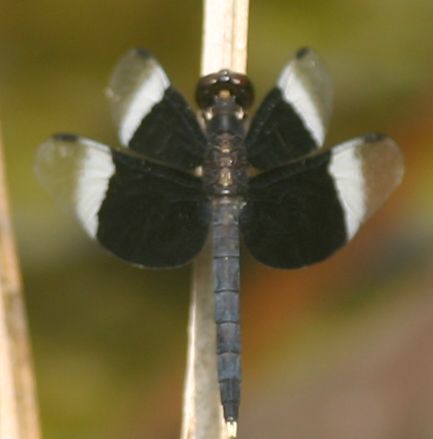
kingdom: Animalia
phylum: Arthropoda
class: Insecta
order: Odonata
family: Libellulidae
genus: Neurothemis
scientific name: Neurothemis tullia
